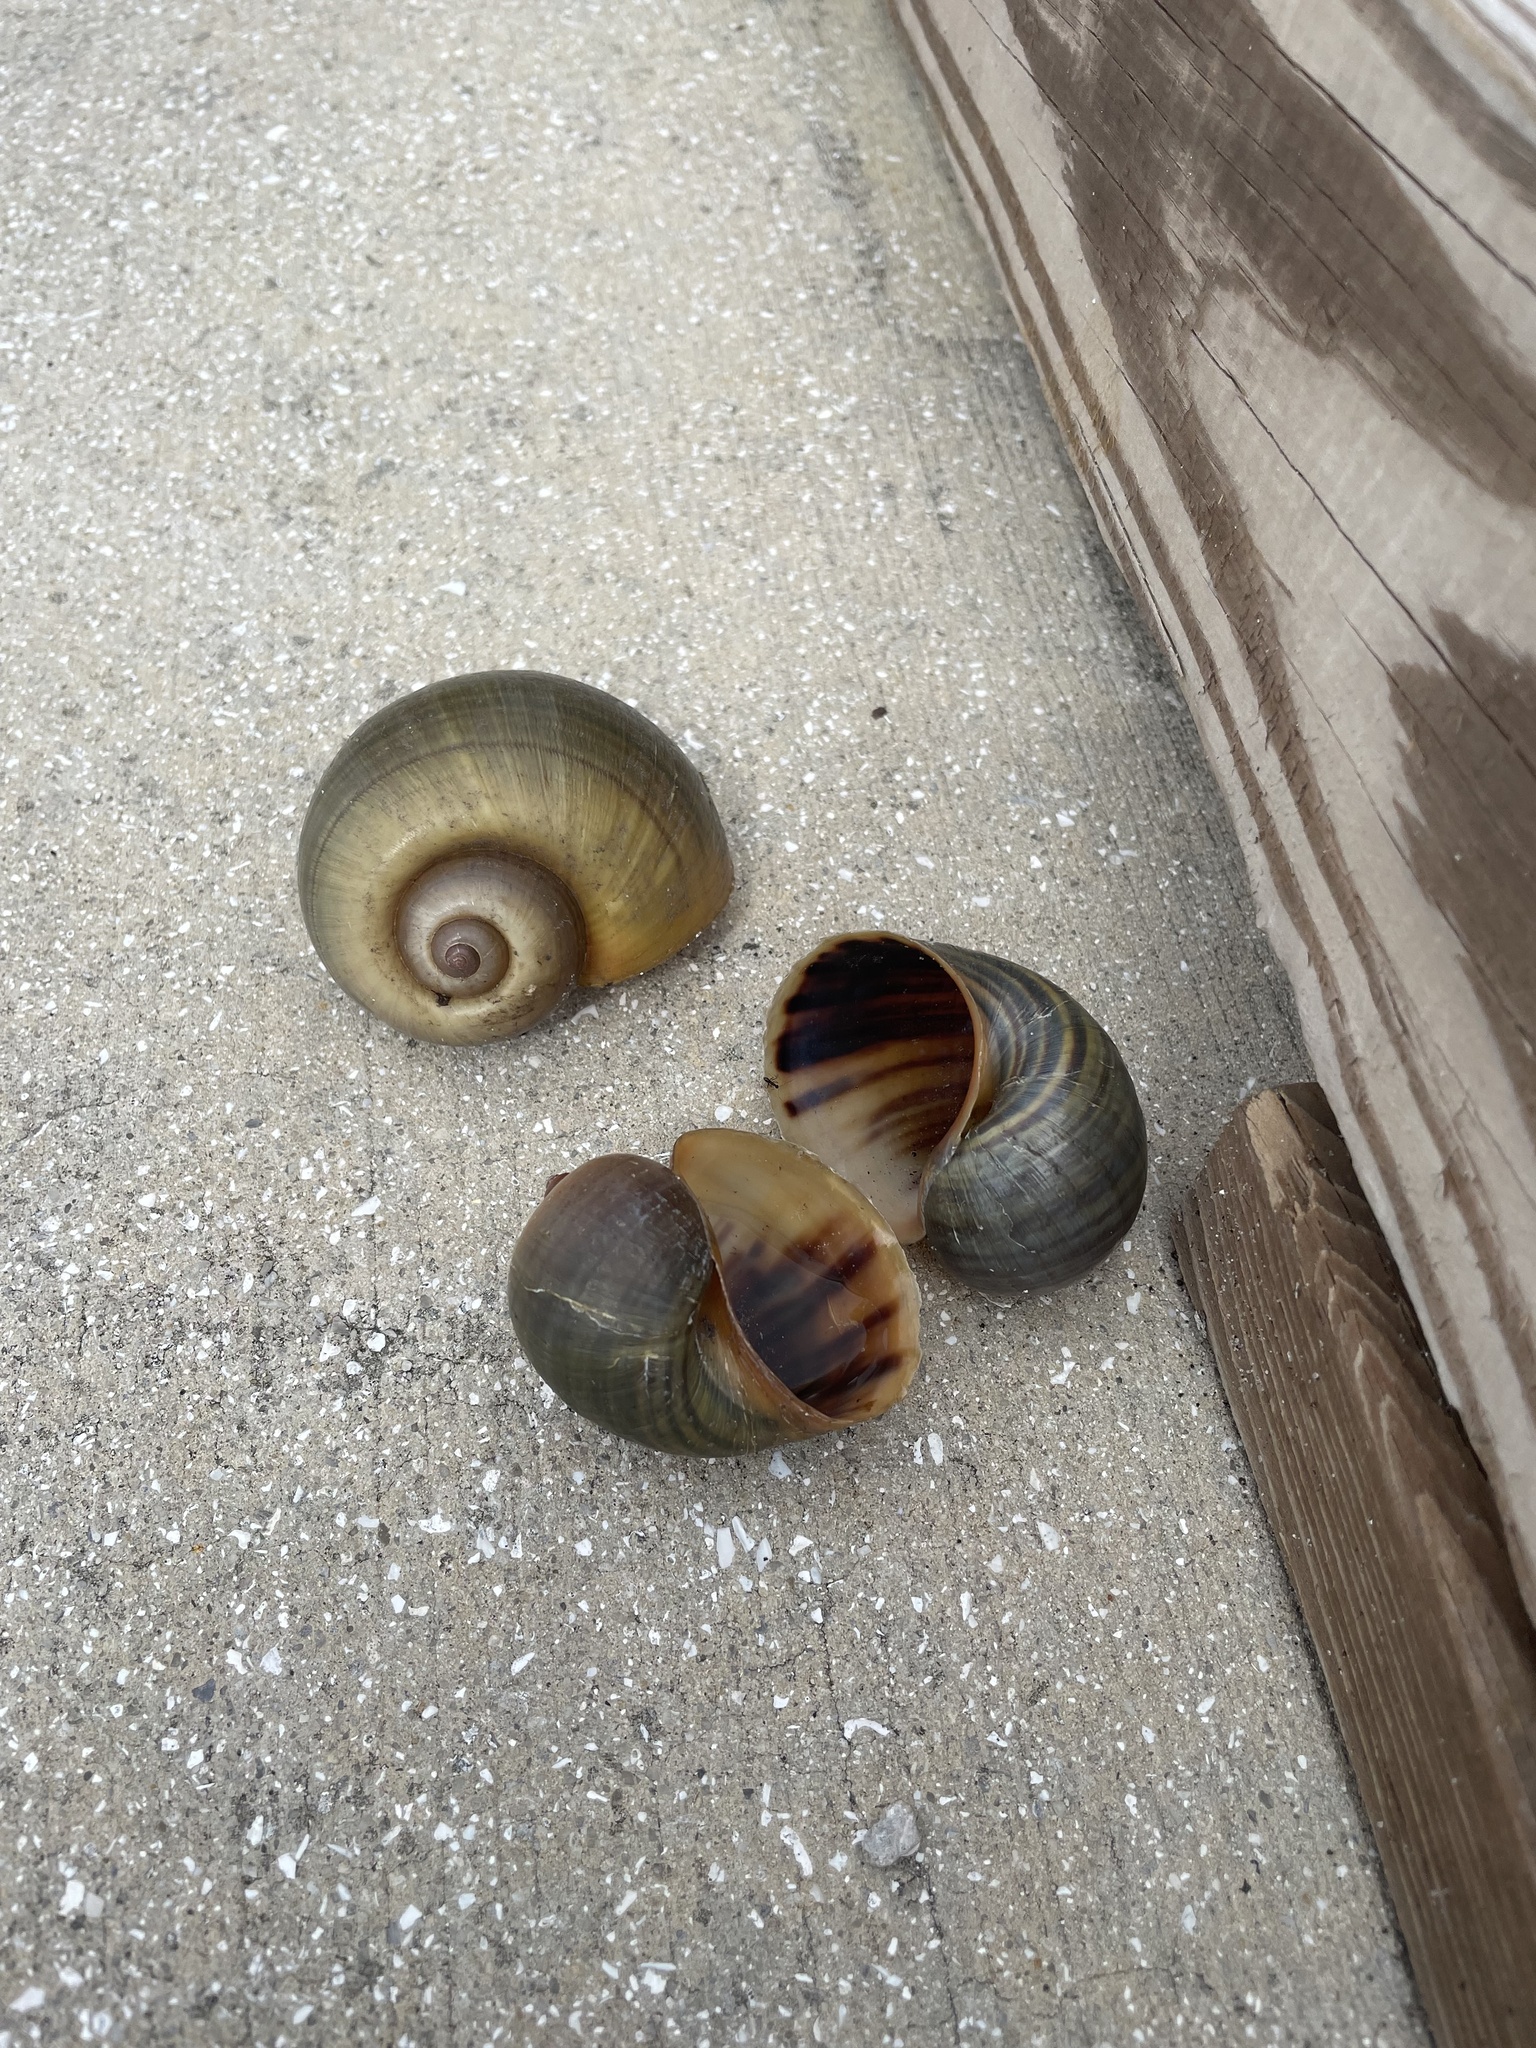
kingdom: Animalia
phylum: Mollusca
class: Gastropoda
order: Architaenioglossa
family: Ampullariidae
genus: Pomacea
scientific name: Pomacea maculata
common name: Giant applesnail
